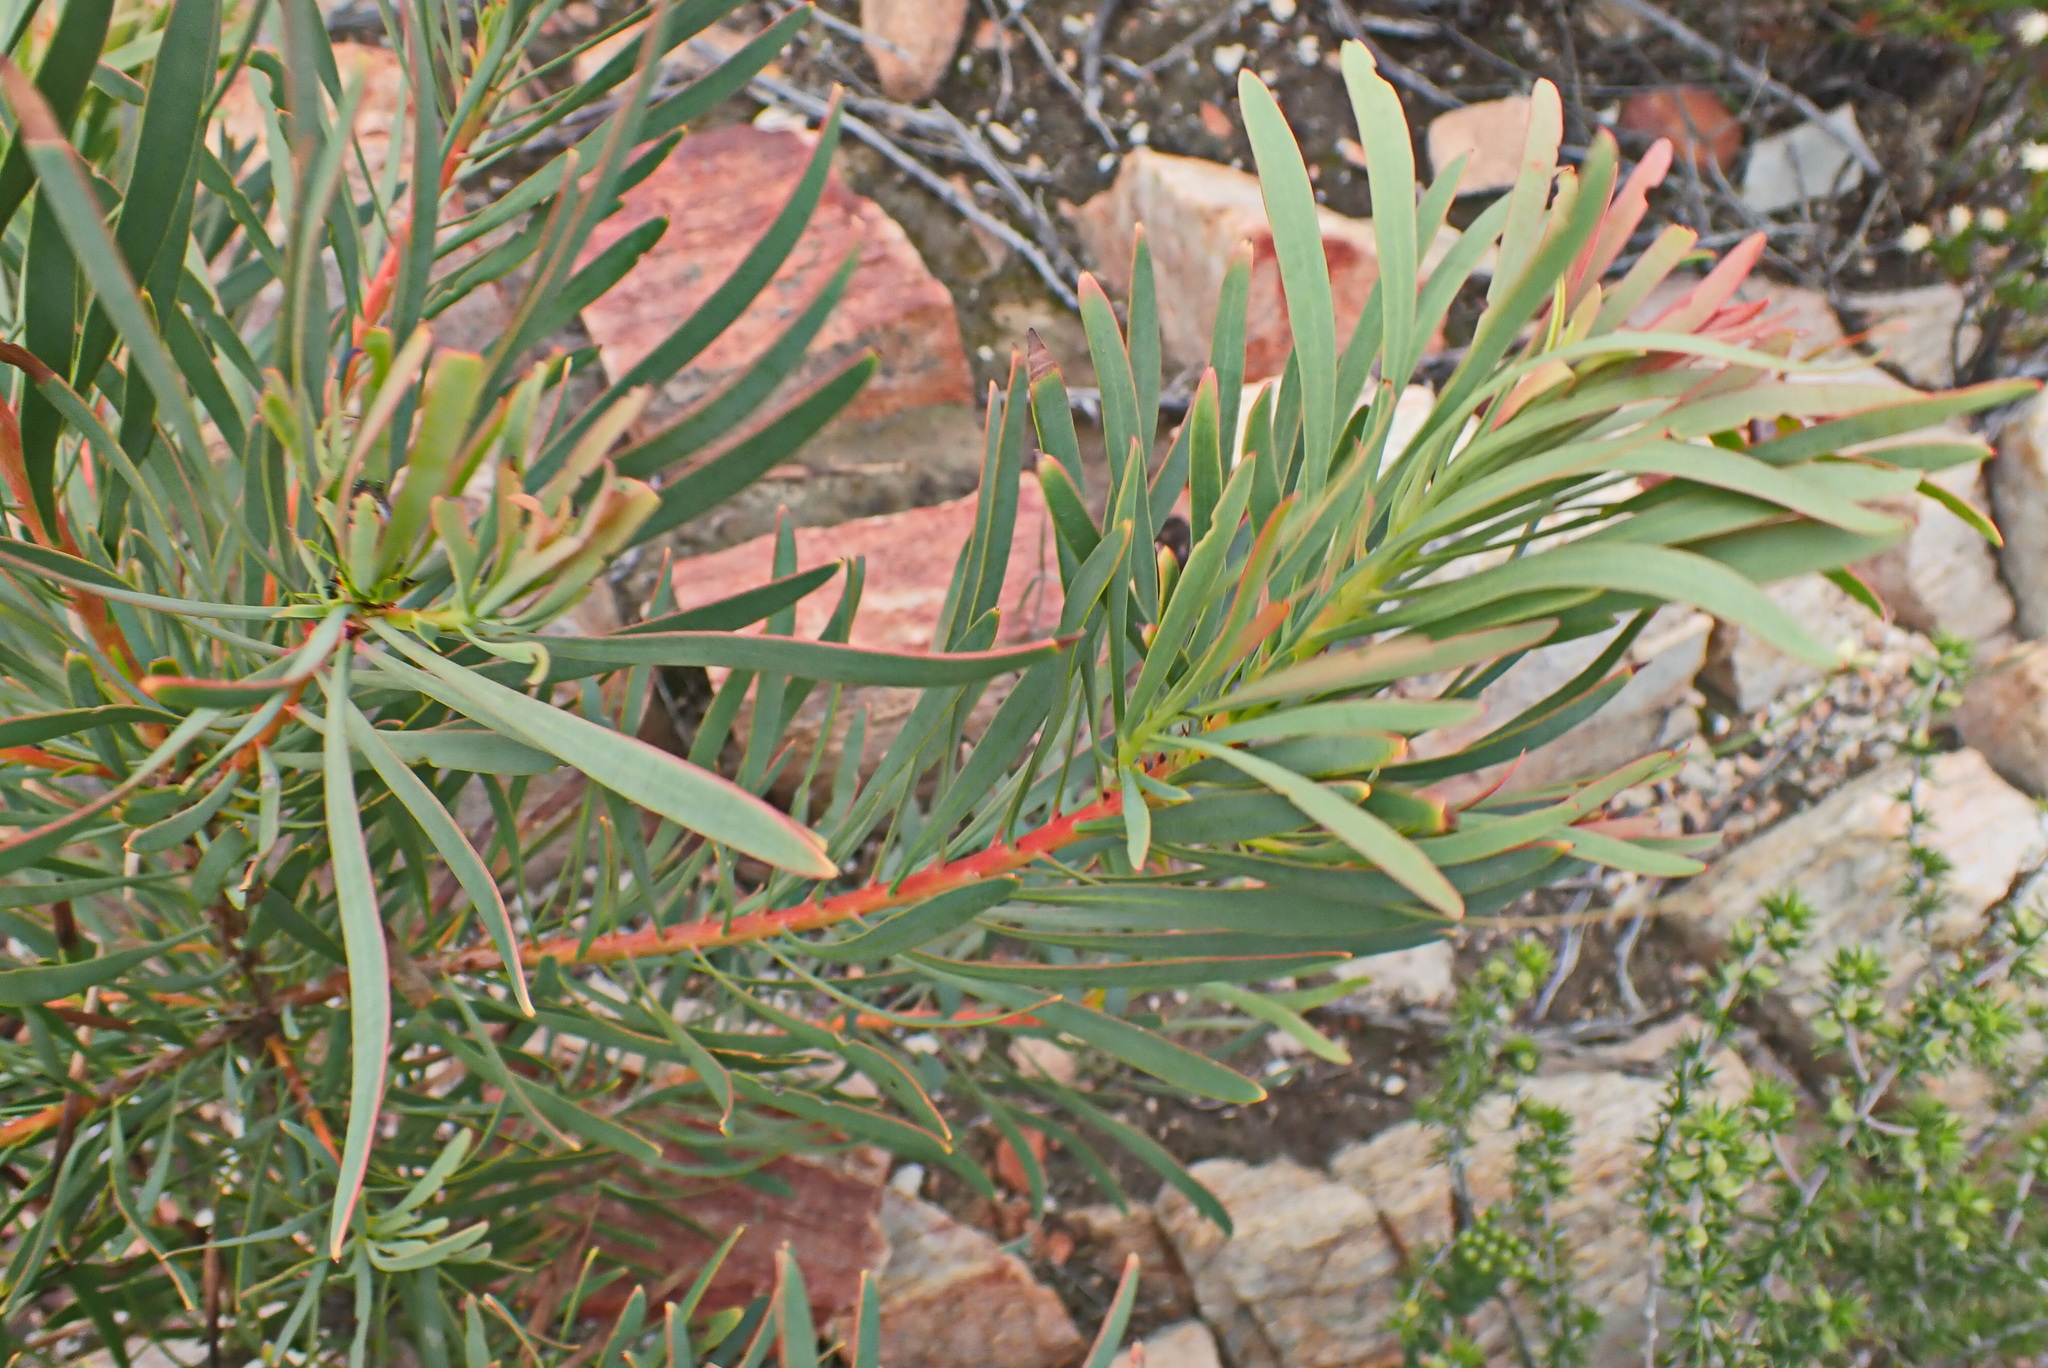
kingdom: Plantae
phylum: Tracheophyta
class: Magnoliopsida
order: Proteales
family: Proteaceae
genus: Protea
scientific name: Protea repens
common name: Sugarbush
